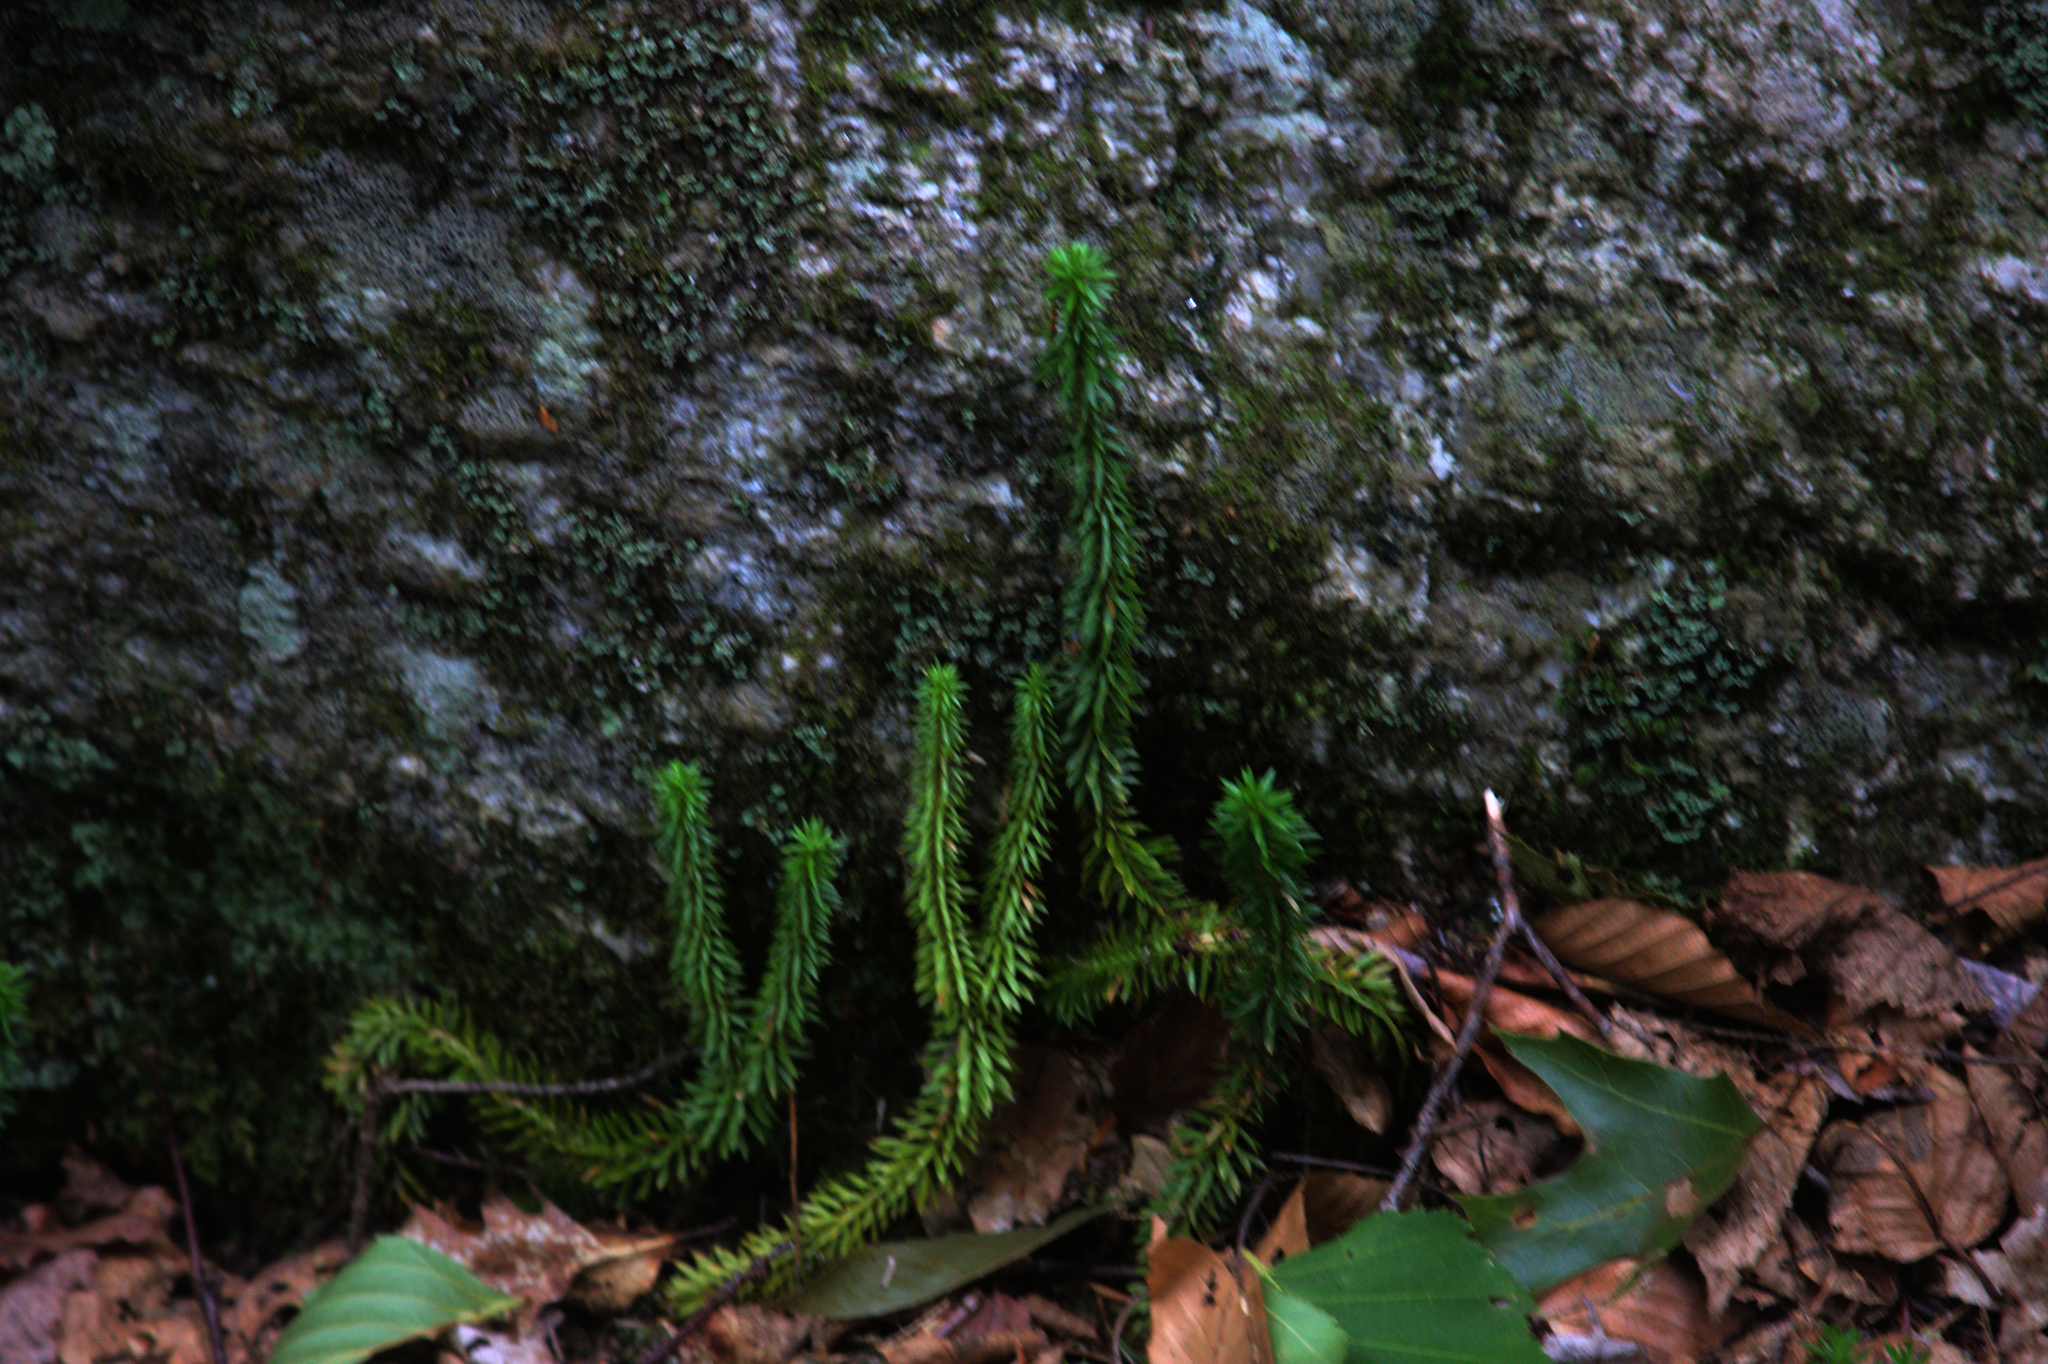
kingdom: Plantae
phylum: Tracheophyta
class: Lycopodiopsida
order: Lycopodiales
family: Lycopodiaceae
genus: Huperzia
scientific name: Huperzia lucidula
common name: Shining clubmoss
